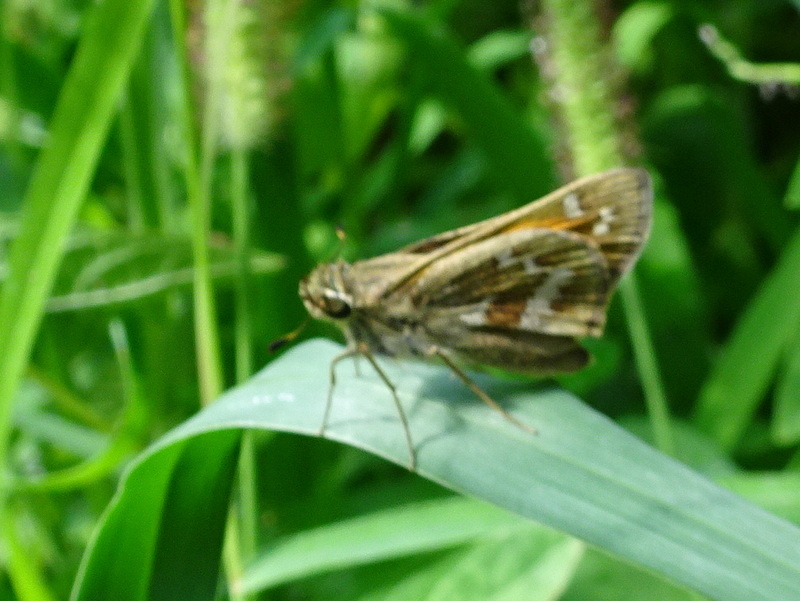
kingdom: Animalia
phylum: Arthropoda
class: Insecta
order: Lepidoptera
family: Hesperiidae
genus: Atalopedes
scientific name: Atalopedes
